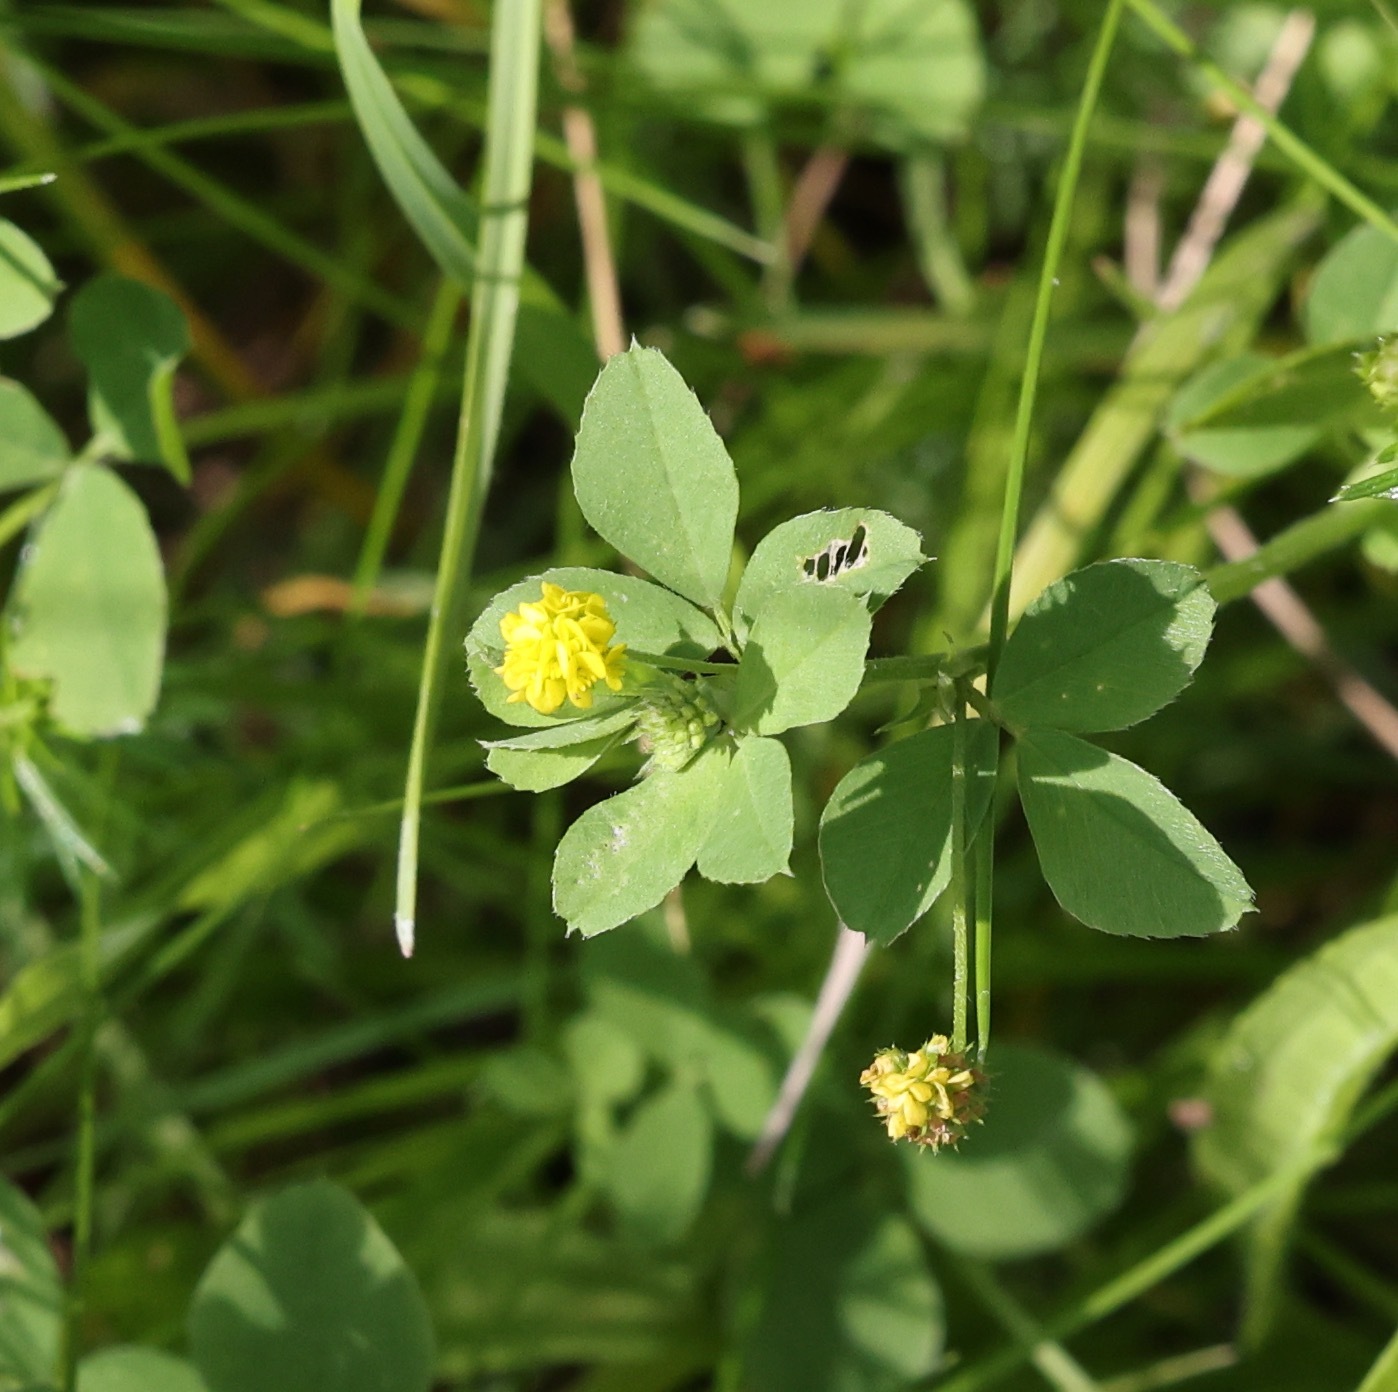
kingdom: Plantae
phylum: Tracheophyta
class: Magnoliopsida
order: Fabales
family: Fabaceae
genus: Medicago
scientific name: Medicago lupulina
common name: Black medick
